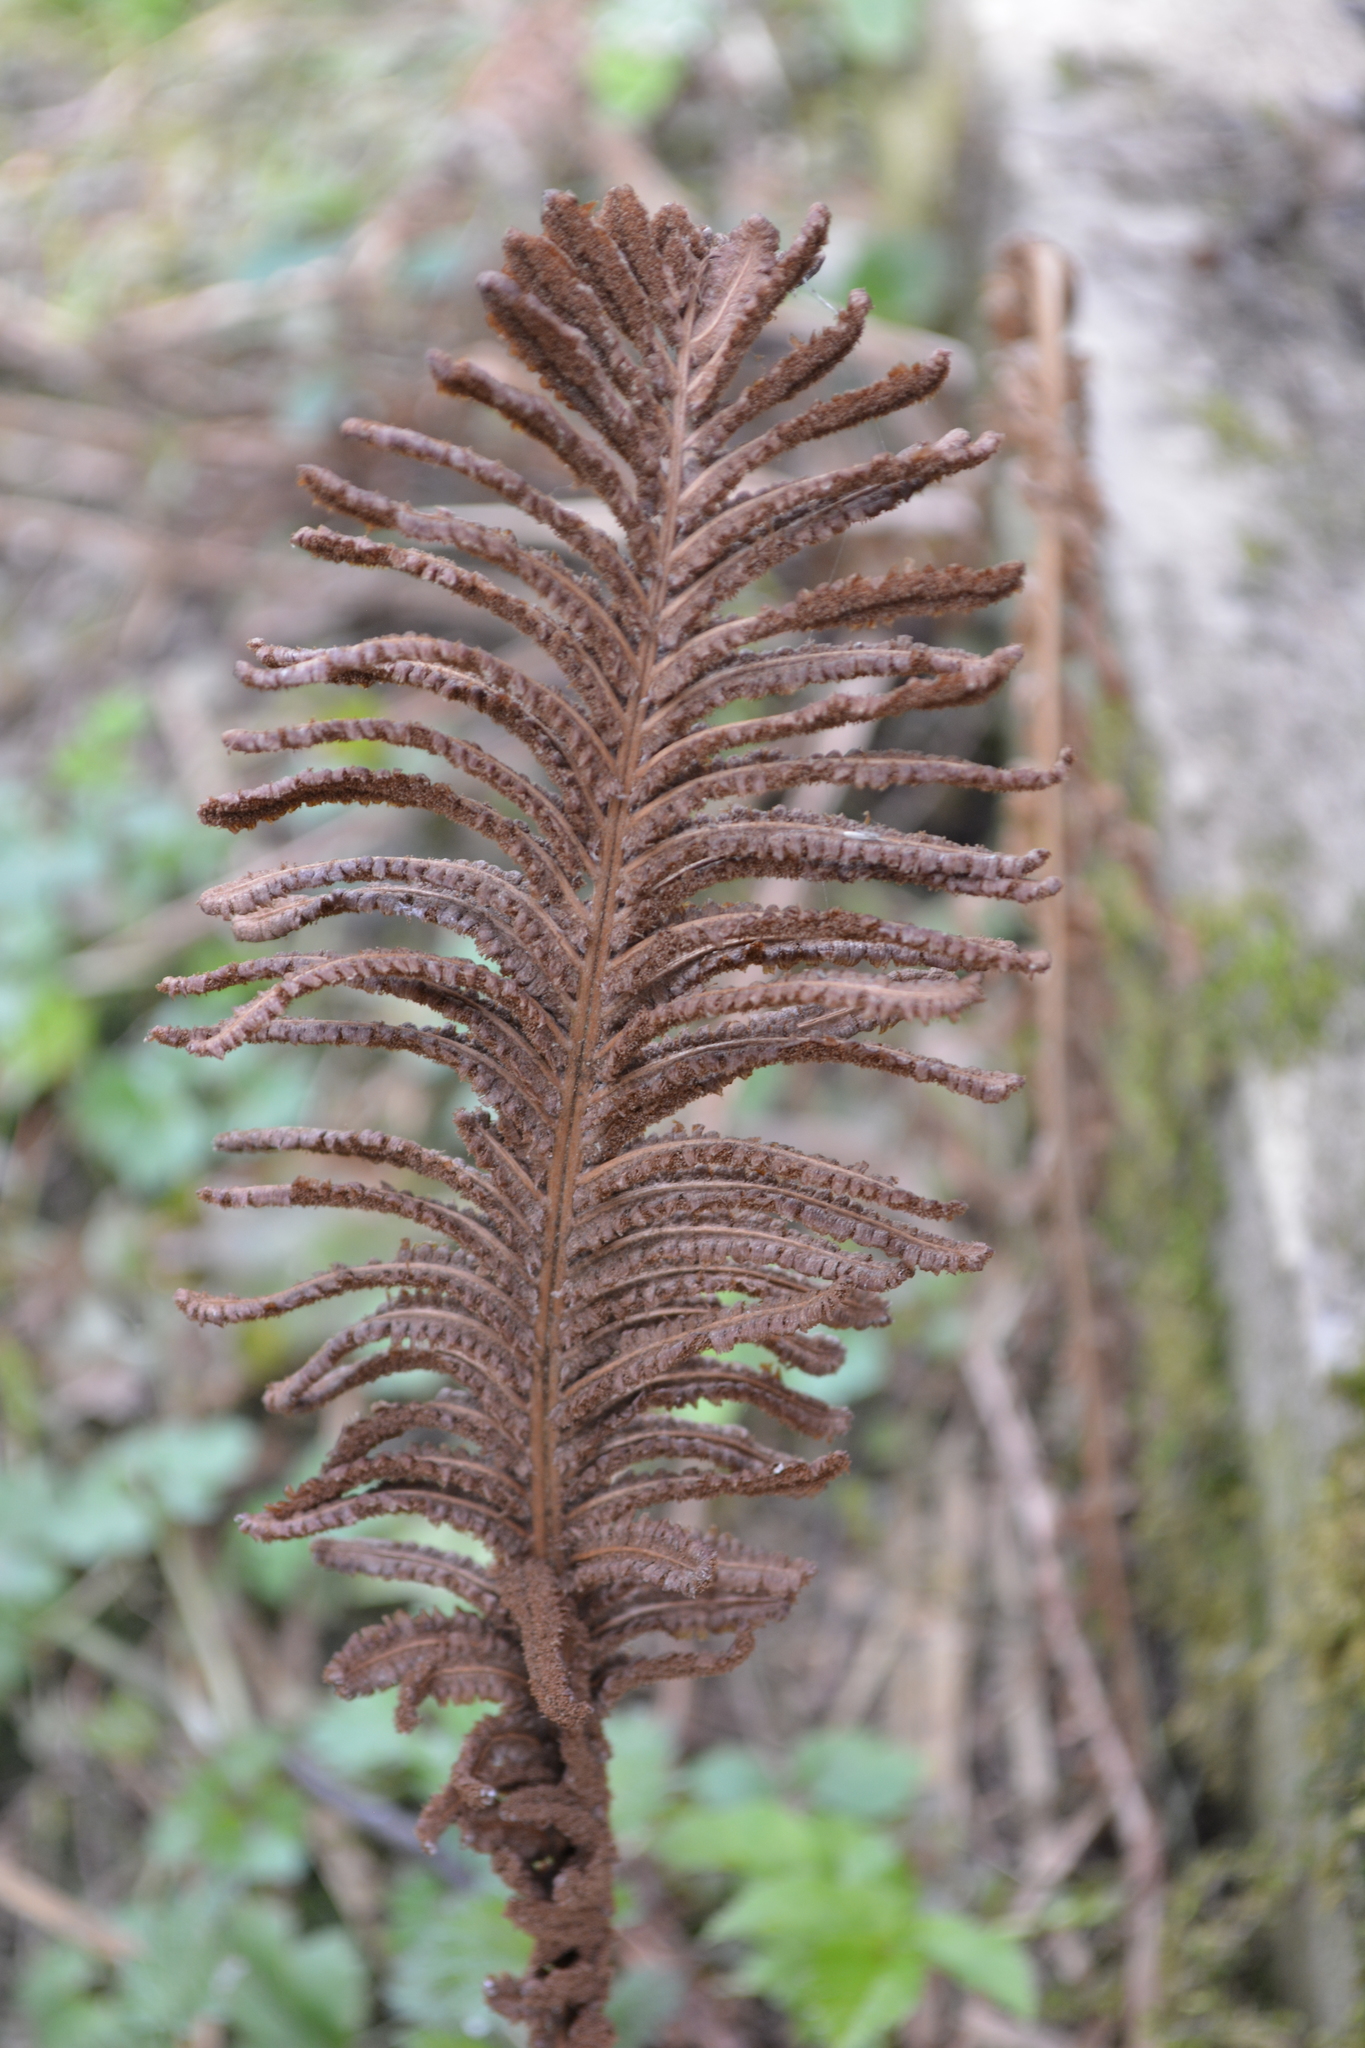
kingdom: Plantae
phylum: Tracheophyta
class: Polypodiopsida
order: Polypodiales
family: Onocleaceae
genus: Matteuccia
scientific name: Matteuccia struthiopteris
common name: Ostrich fern
